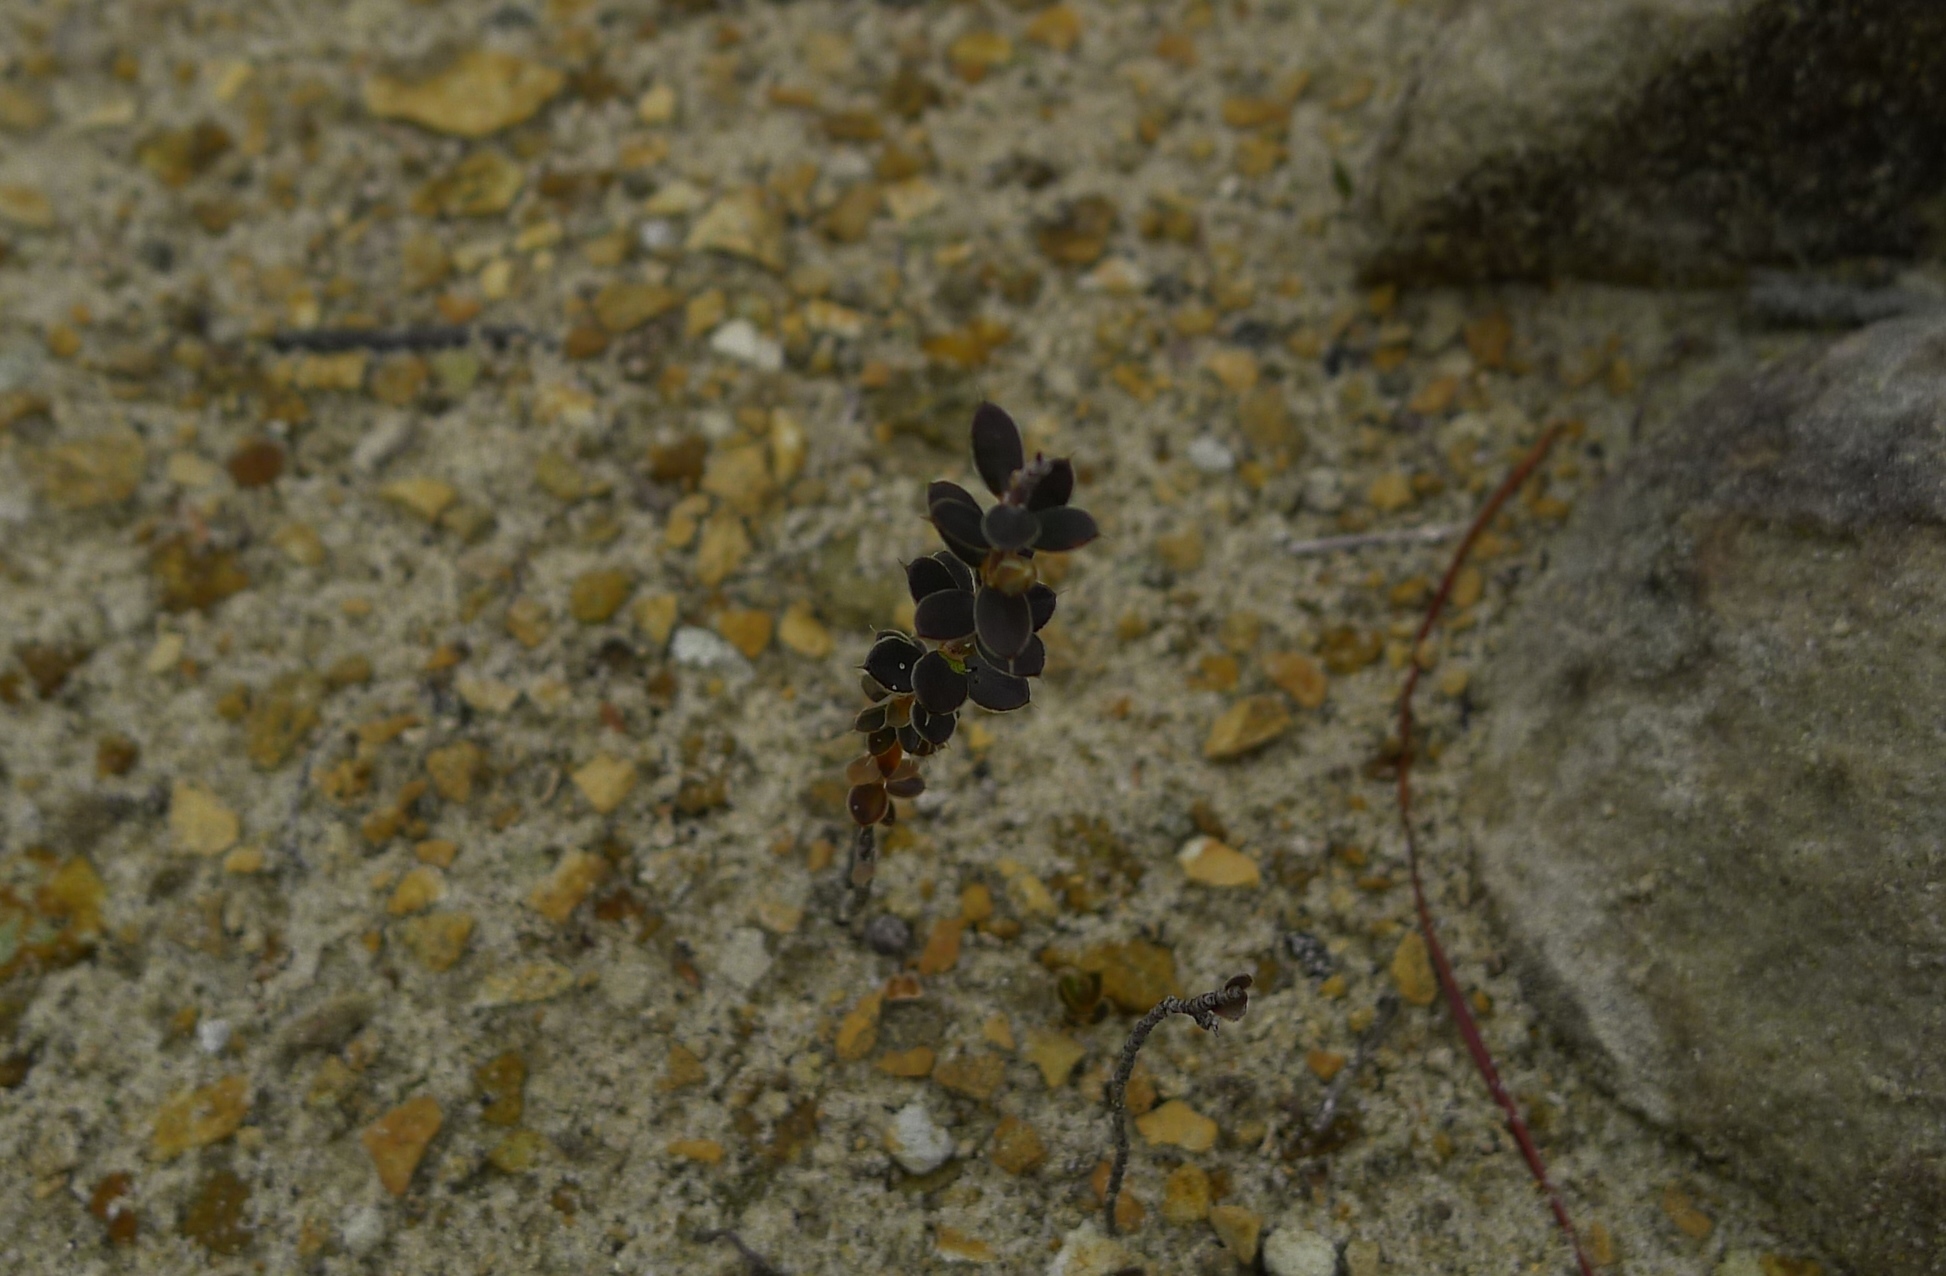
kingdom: Plantae
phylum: Tracheophyta
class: Magnoliopsida
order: Ericales
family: Ericaceae
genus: Styphelia
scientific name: Styphelia nesophila
